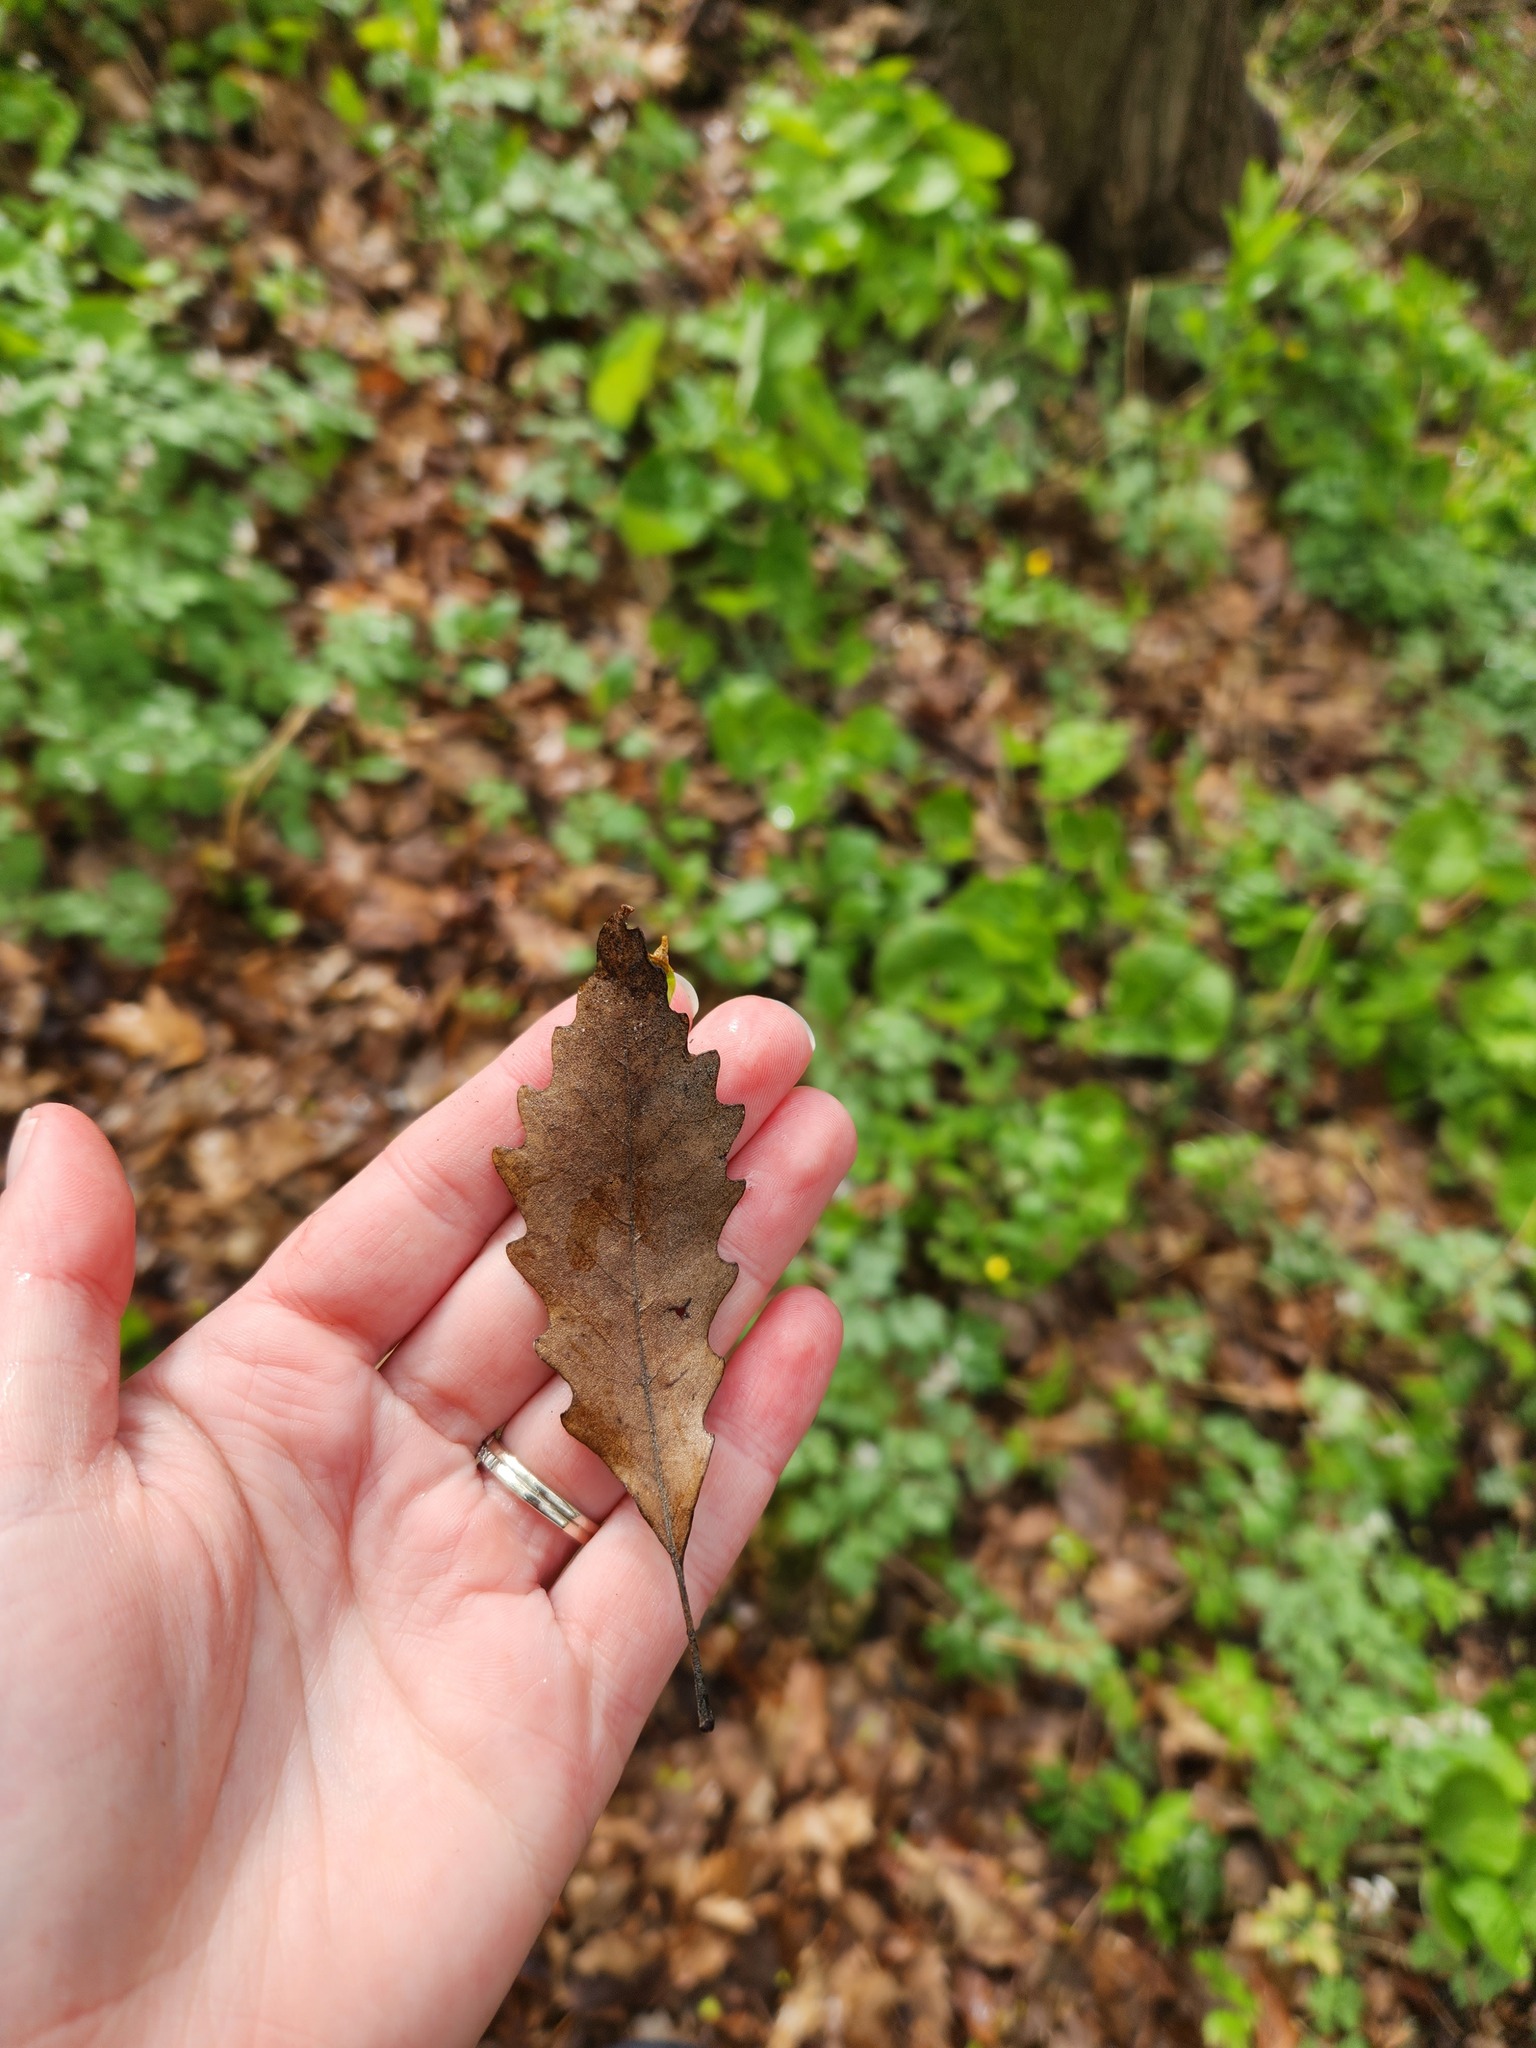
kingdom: Plantae
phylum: Tracheophyta
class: Magnoliopsida
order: Fagales
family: Fagaceae
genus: Quercus
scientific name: Quercus muehlenbergii
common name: Chinkapin oak
